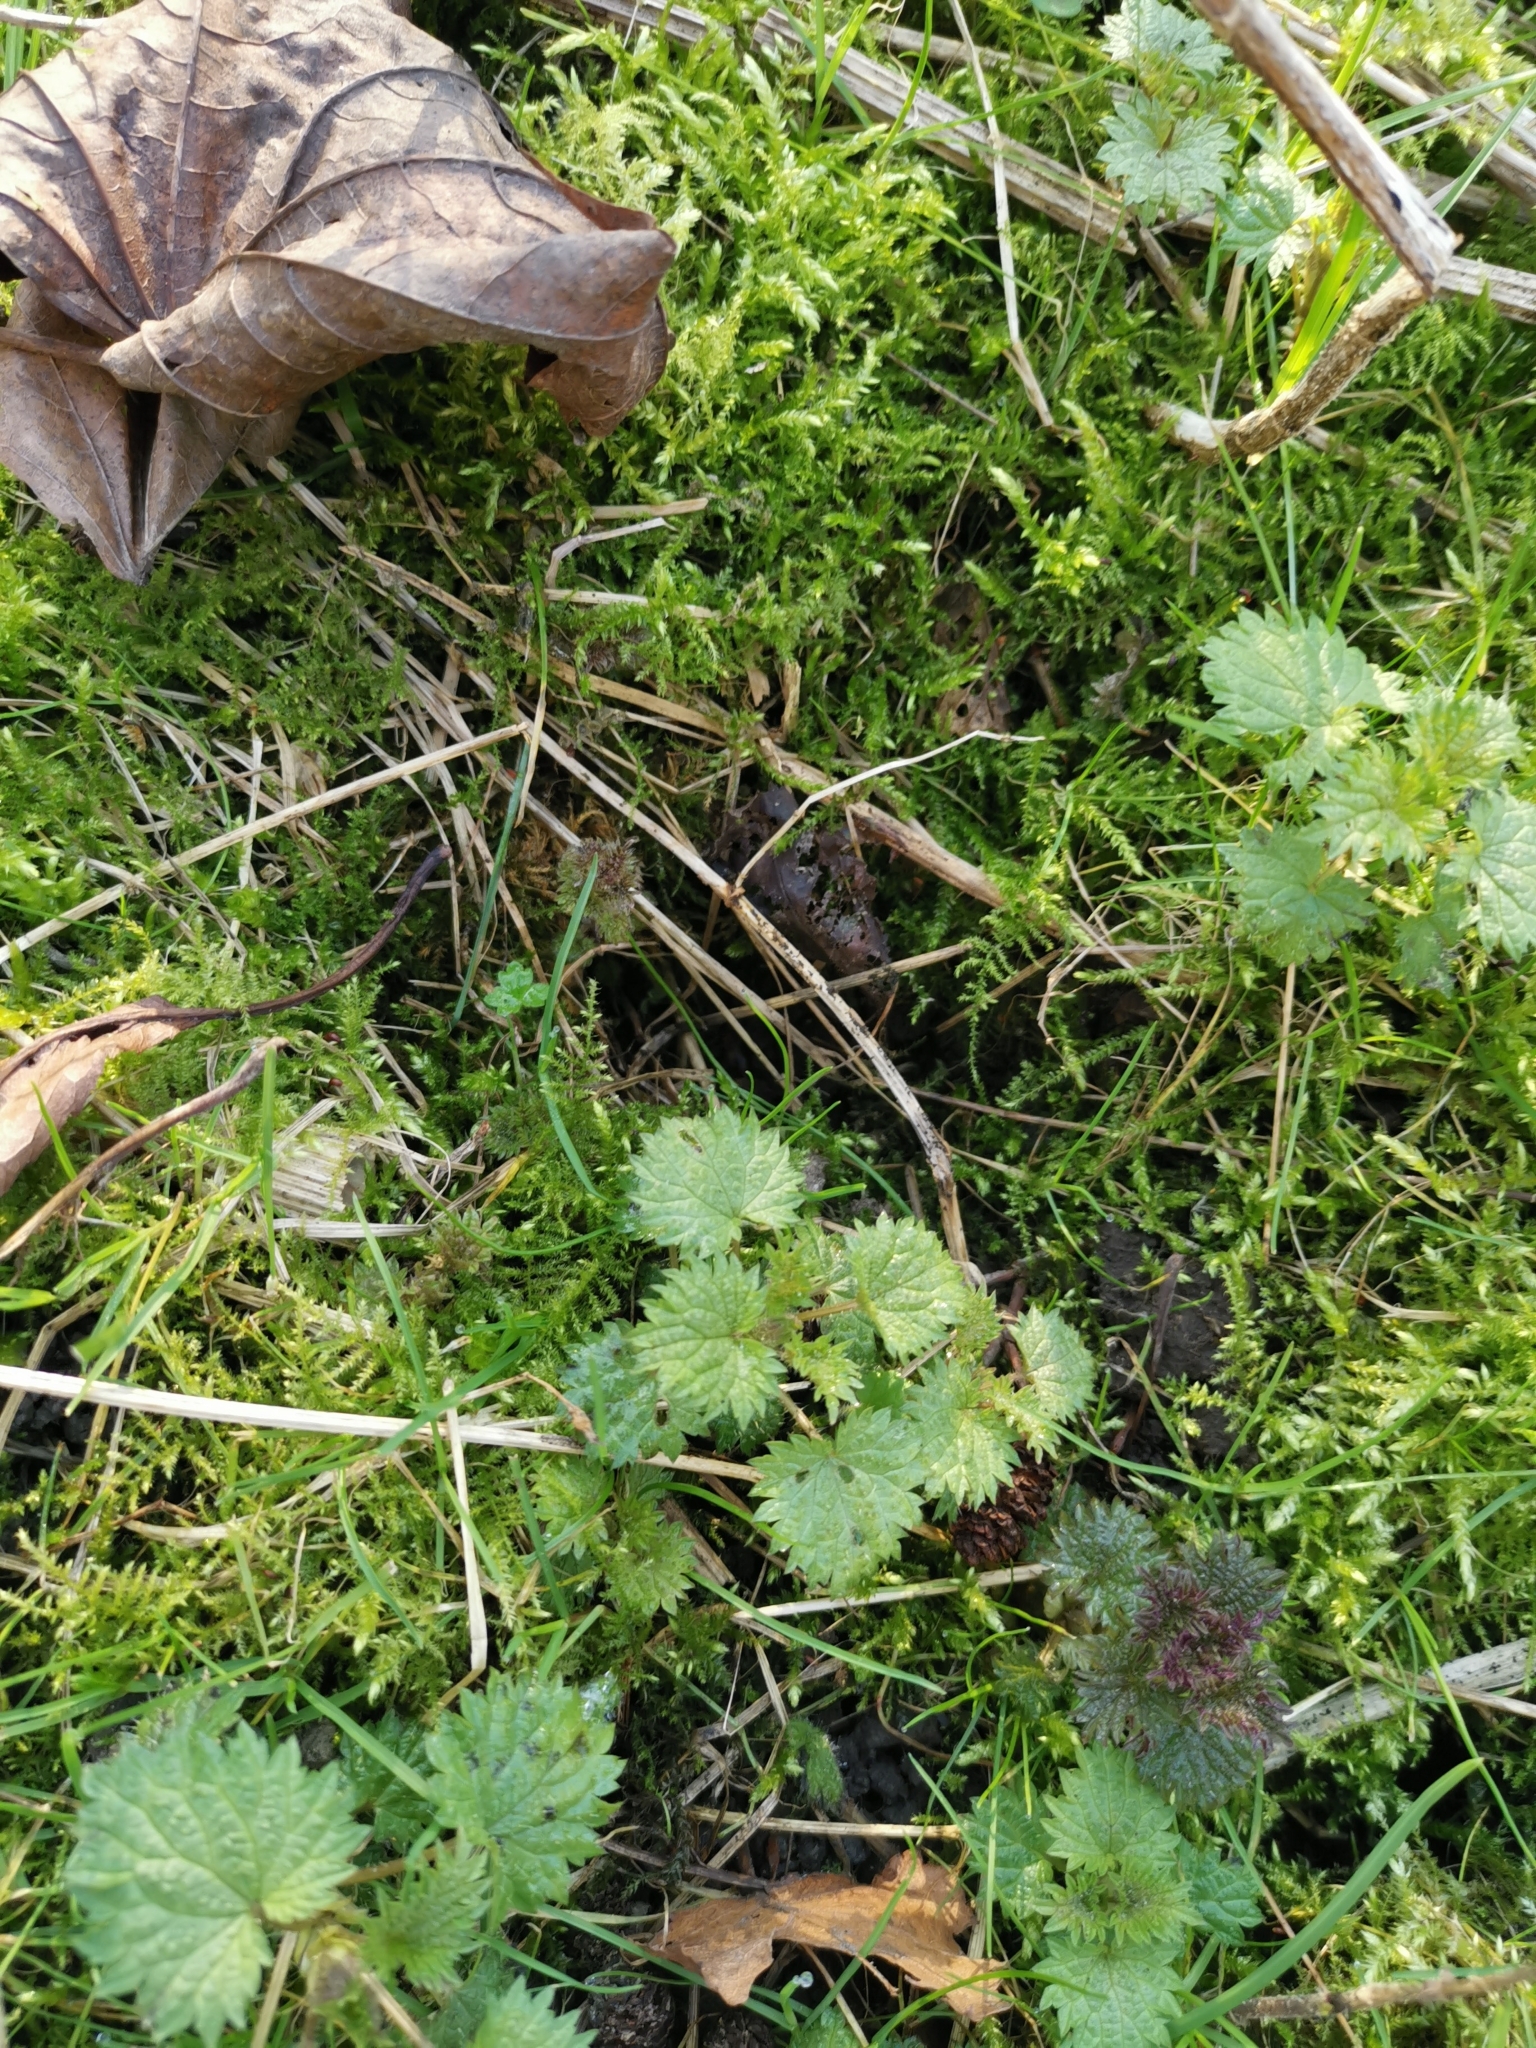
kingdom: Plantae
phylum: Tracheophyta
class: Magnoliopsida
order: Rosales
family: Urticaceae
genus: Urtica
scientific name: Urtica dioica
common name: Common nettle
